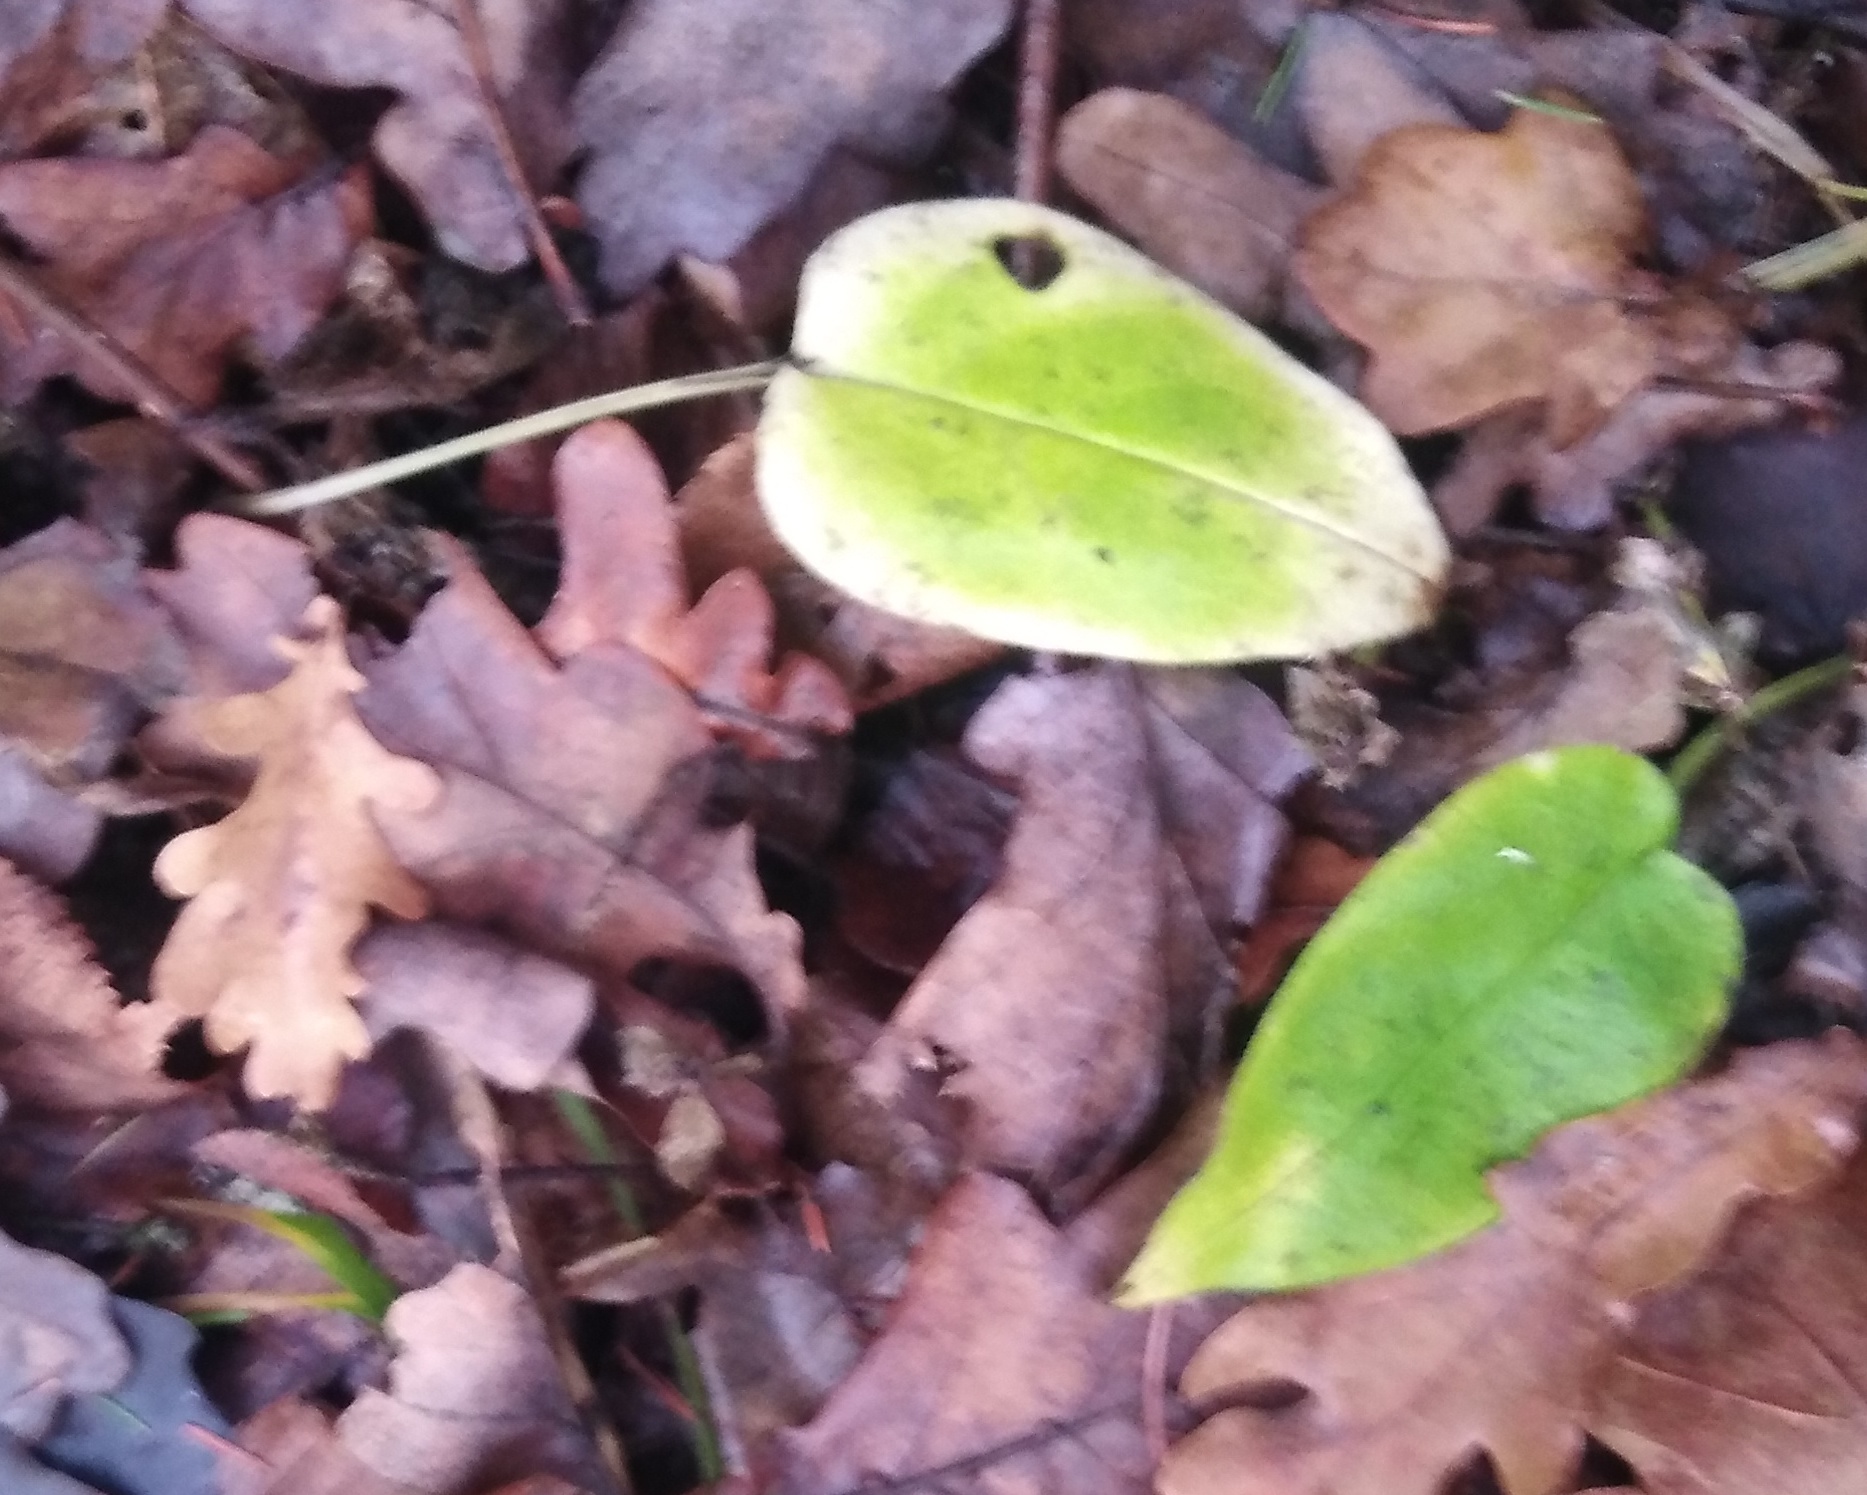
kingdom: Plantae
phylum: Tracheophyta
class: Magnoliopsida
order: Boraginales
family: Boraginaceae
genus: Pulmonaria
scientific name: Pulmonaria obscura
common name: Suffolk lungwort
